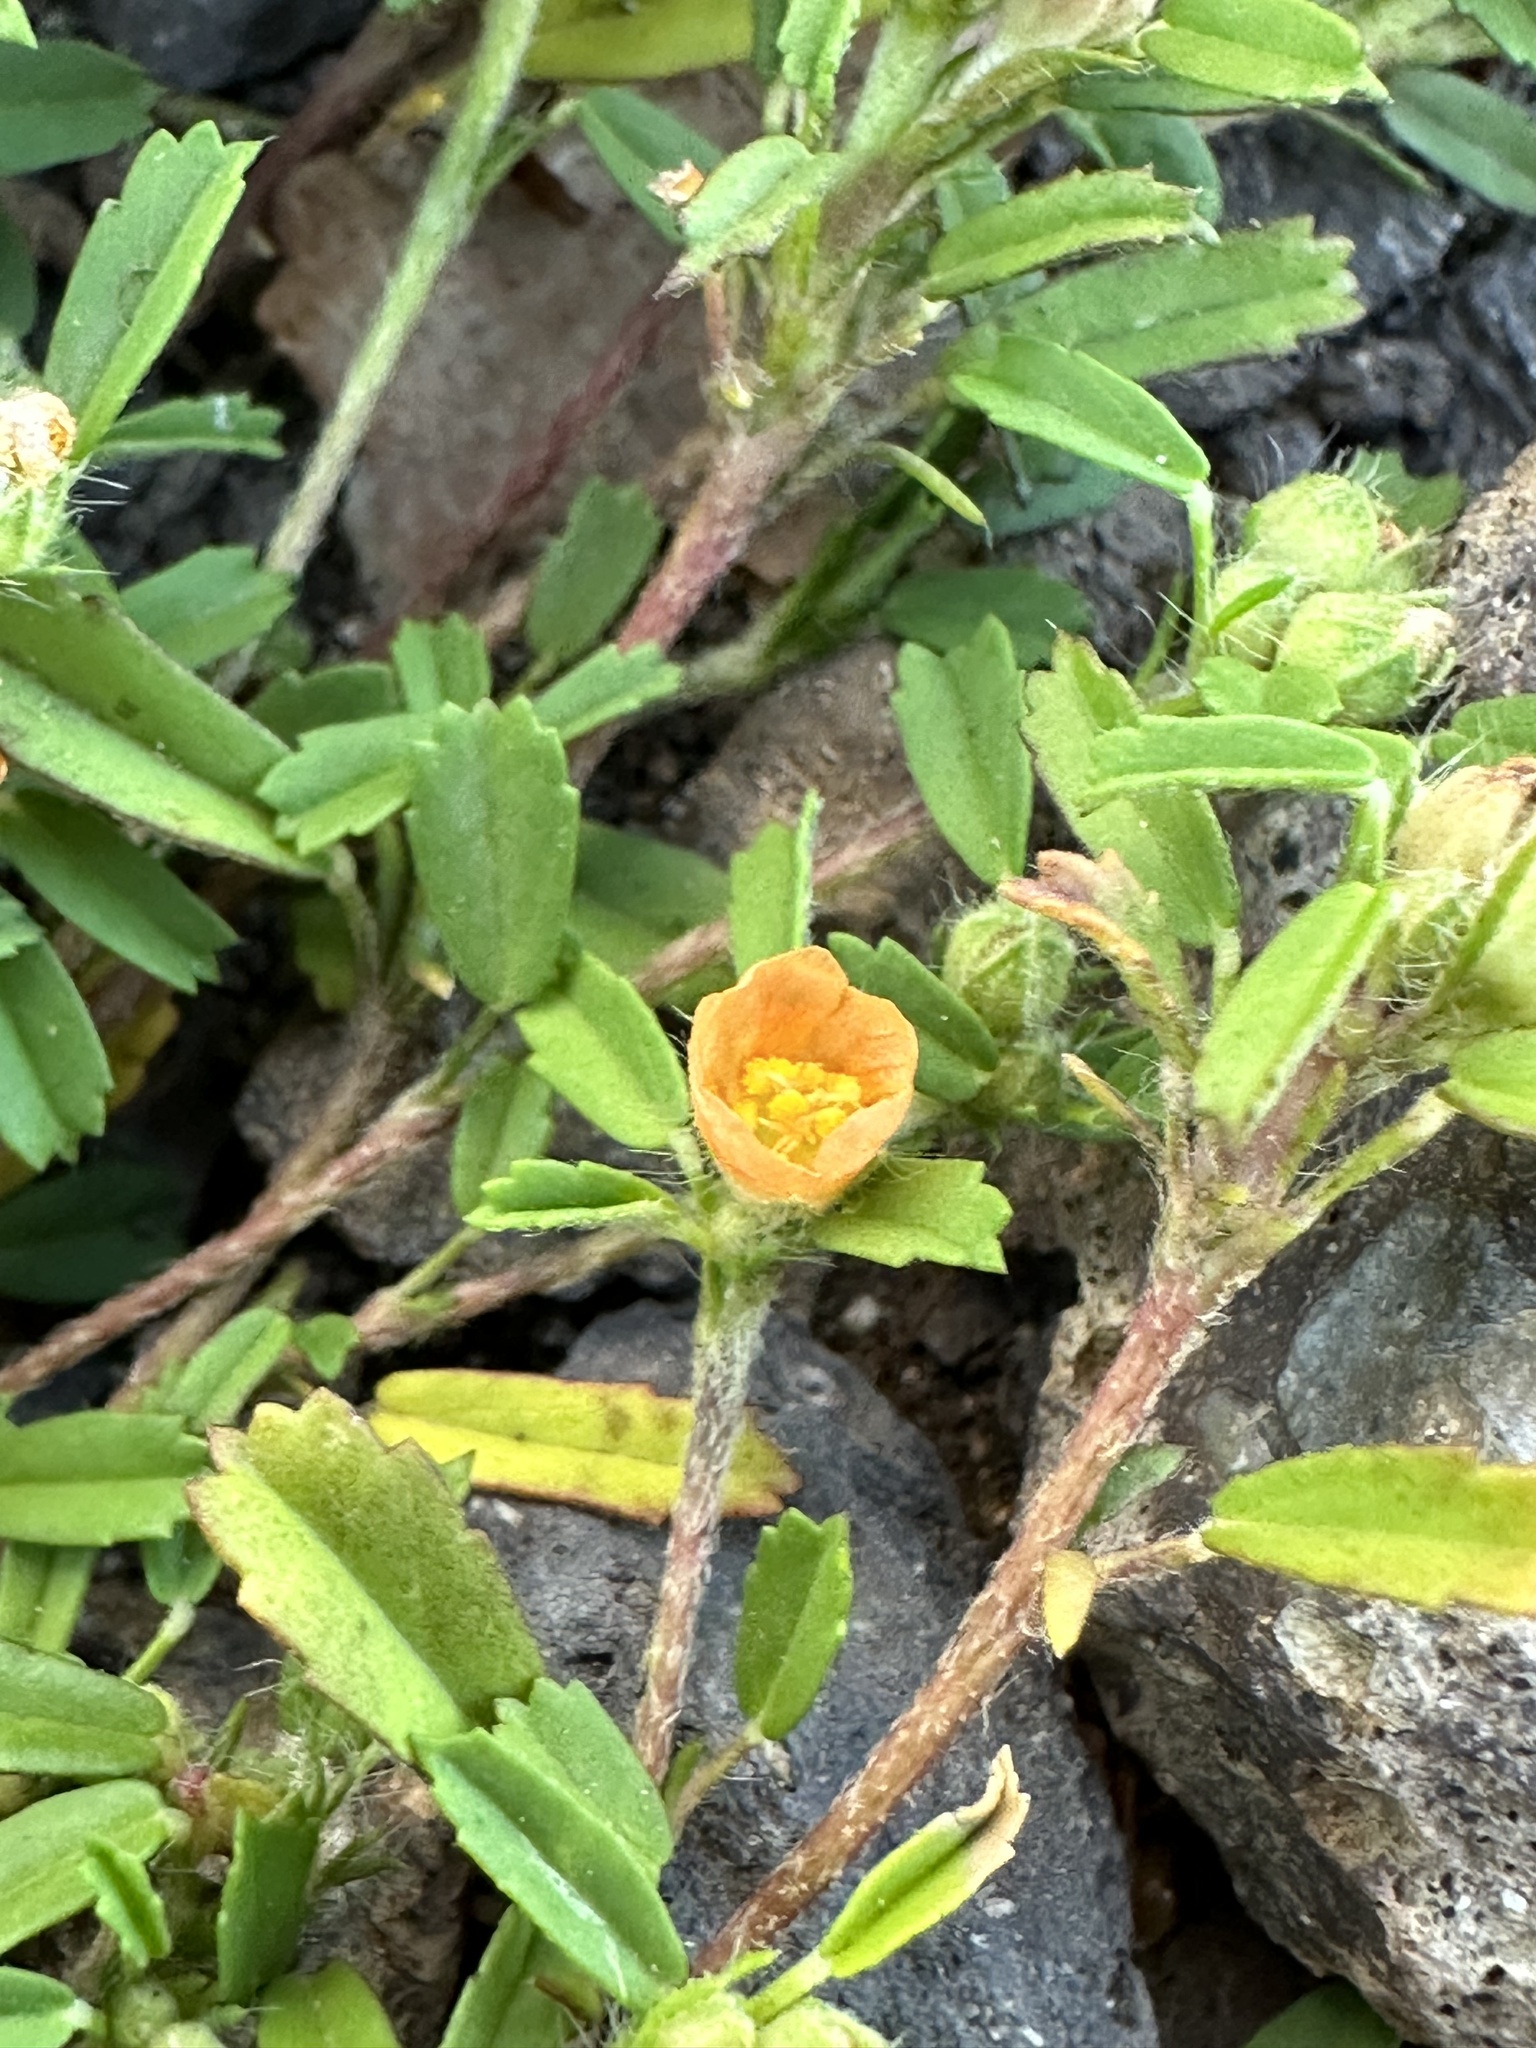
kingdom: Plantae
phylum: Tracheophyta
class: Magnoliopsida
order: Malvales
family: Malvaceae
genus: Sida
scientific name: Sida ciliaris
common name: Bracted fanpetals
